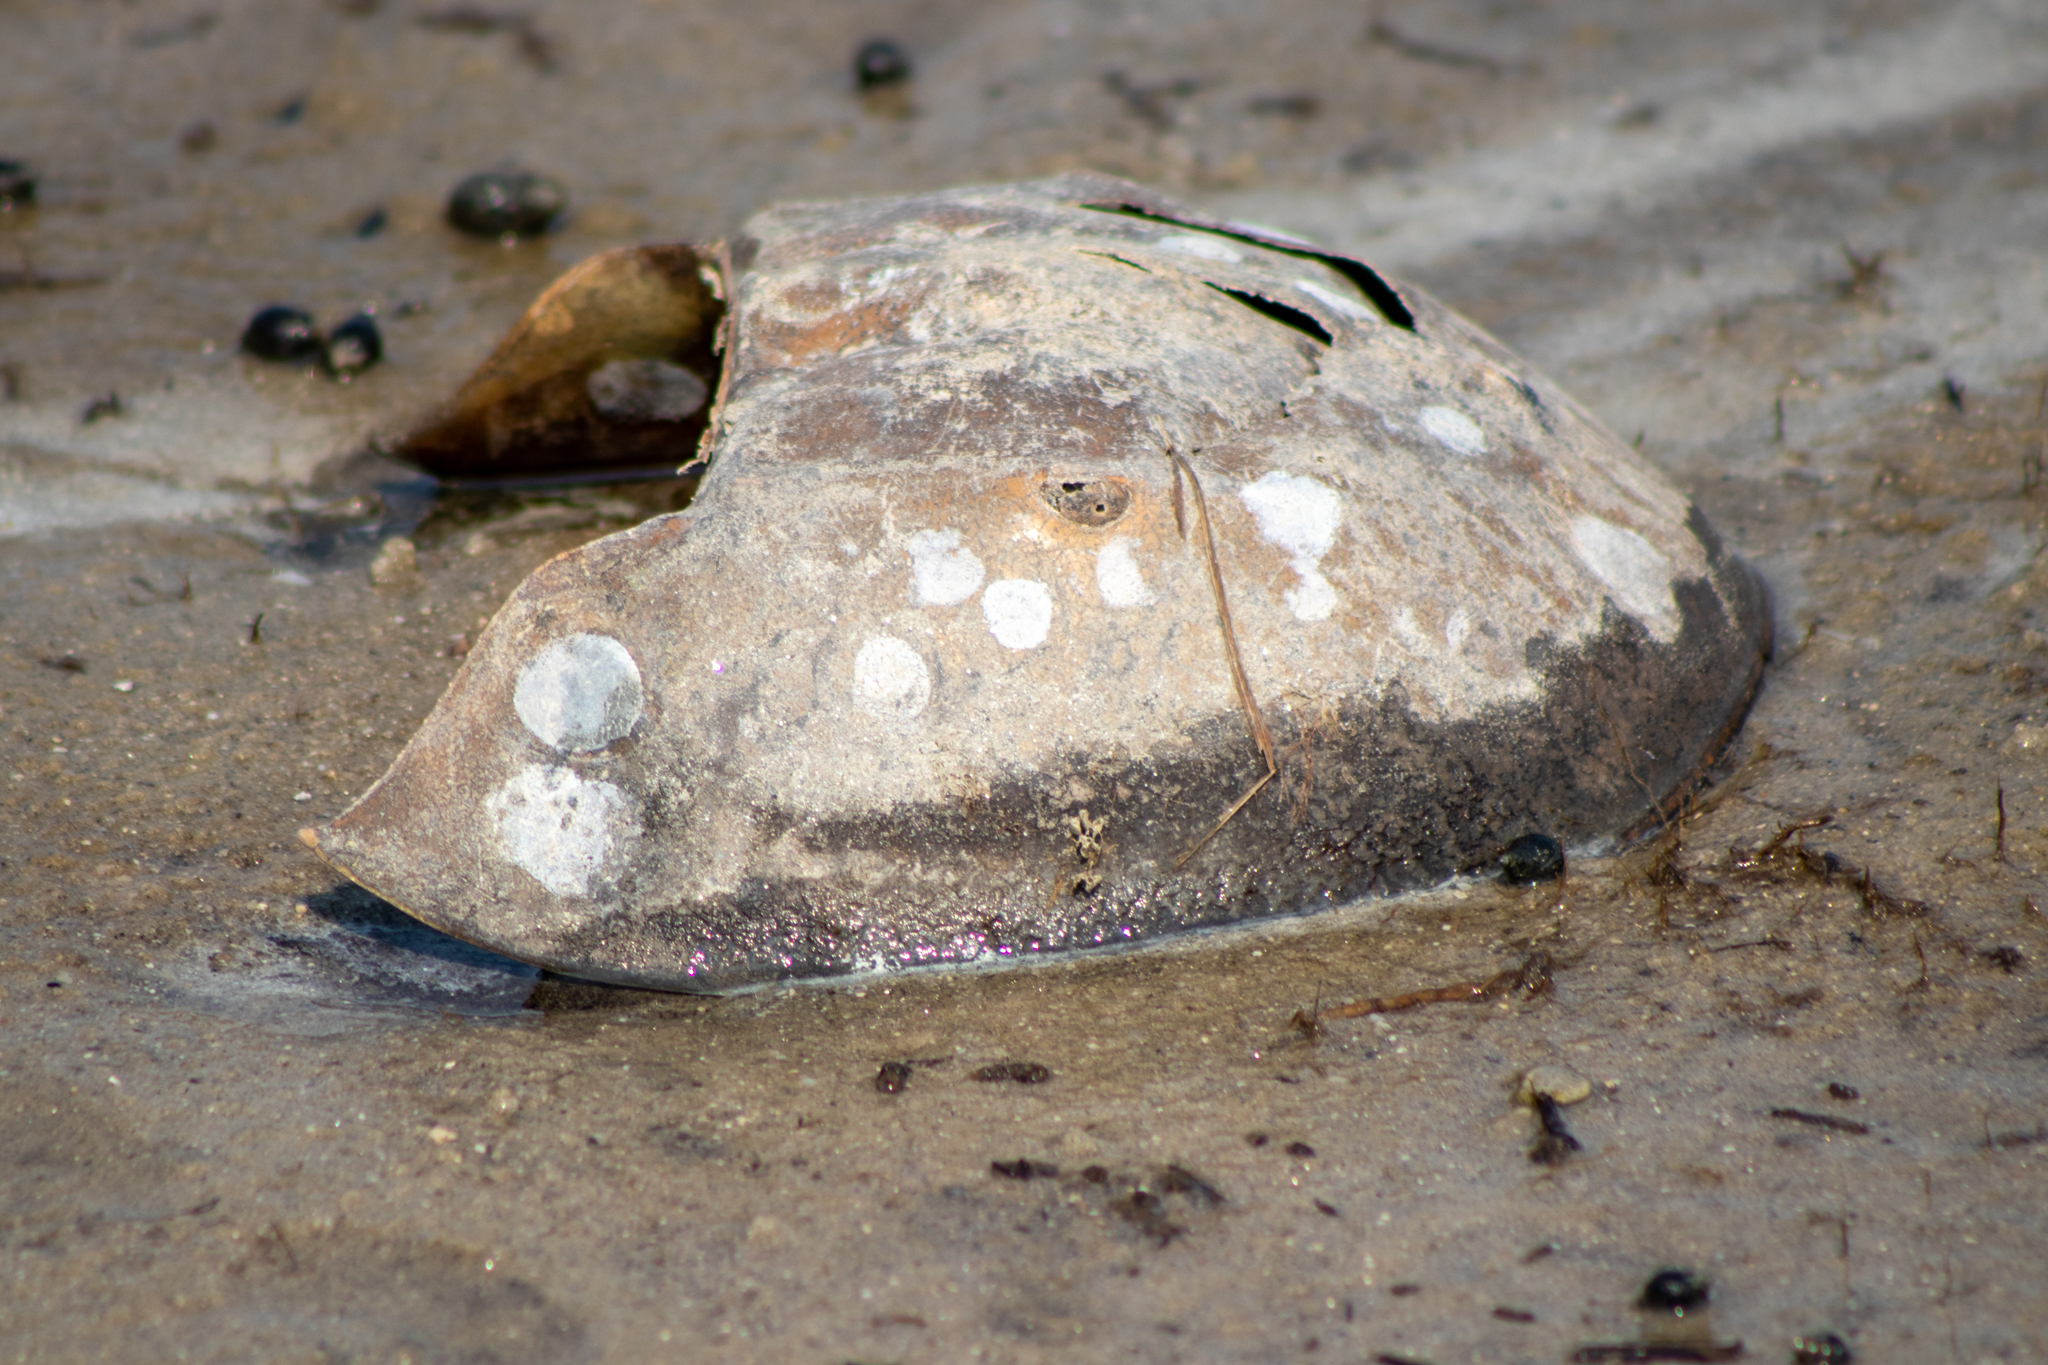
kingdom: Animalia
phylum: Arthropoda
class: Merostomata
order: Xiphosurida
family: Limulidae
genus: Limulus
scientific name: Limulus polyphemus
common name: Horseshoe crab
